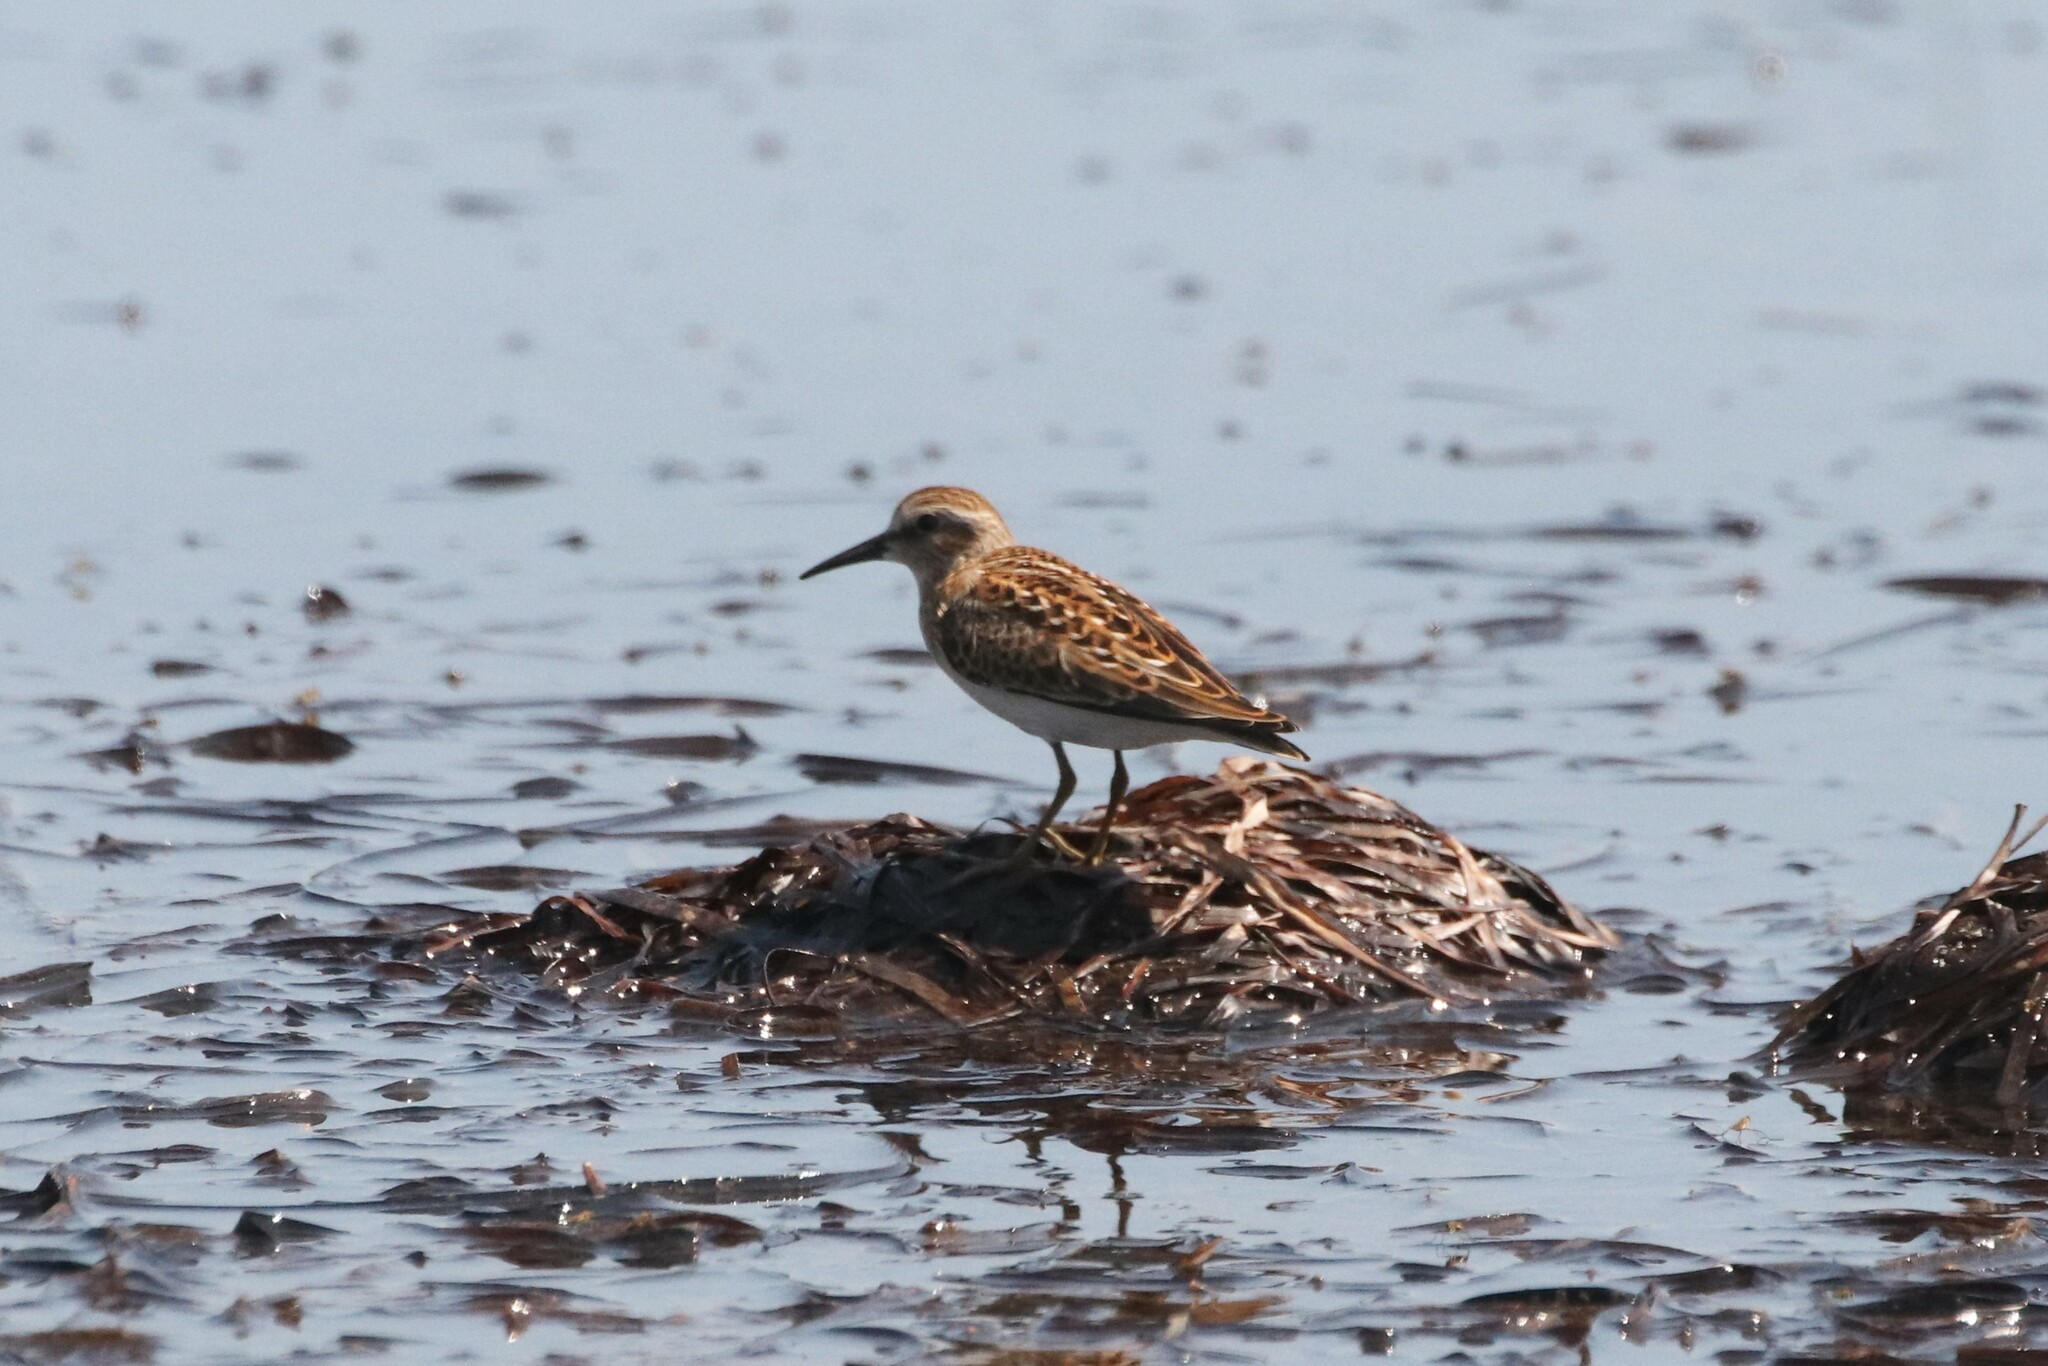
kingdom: Animalia
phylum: Chordata
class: Aves
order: Charadriiformes
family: Scolopacidae
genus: Calidris
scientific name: Calidris minutilla
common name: Least sandpiper
